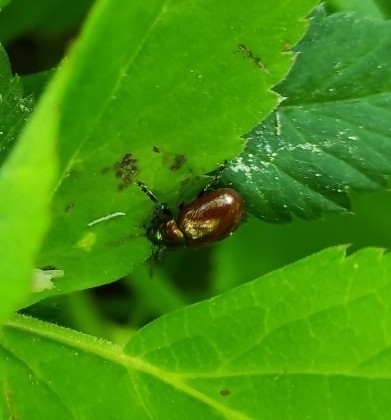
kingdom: Animalia
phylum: Arthropoda
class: Insecta
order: Coleoptera
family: Chrysomelidae
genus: Chrysomela
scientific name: Chrysomela polita
